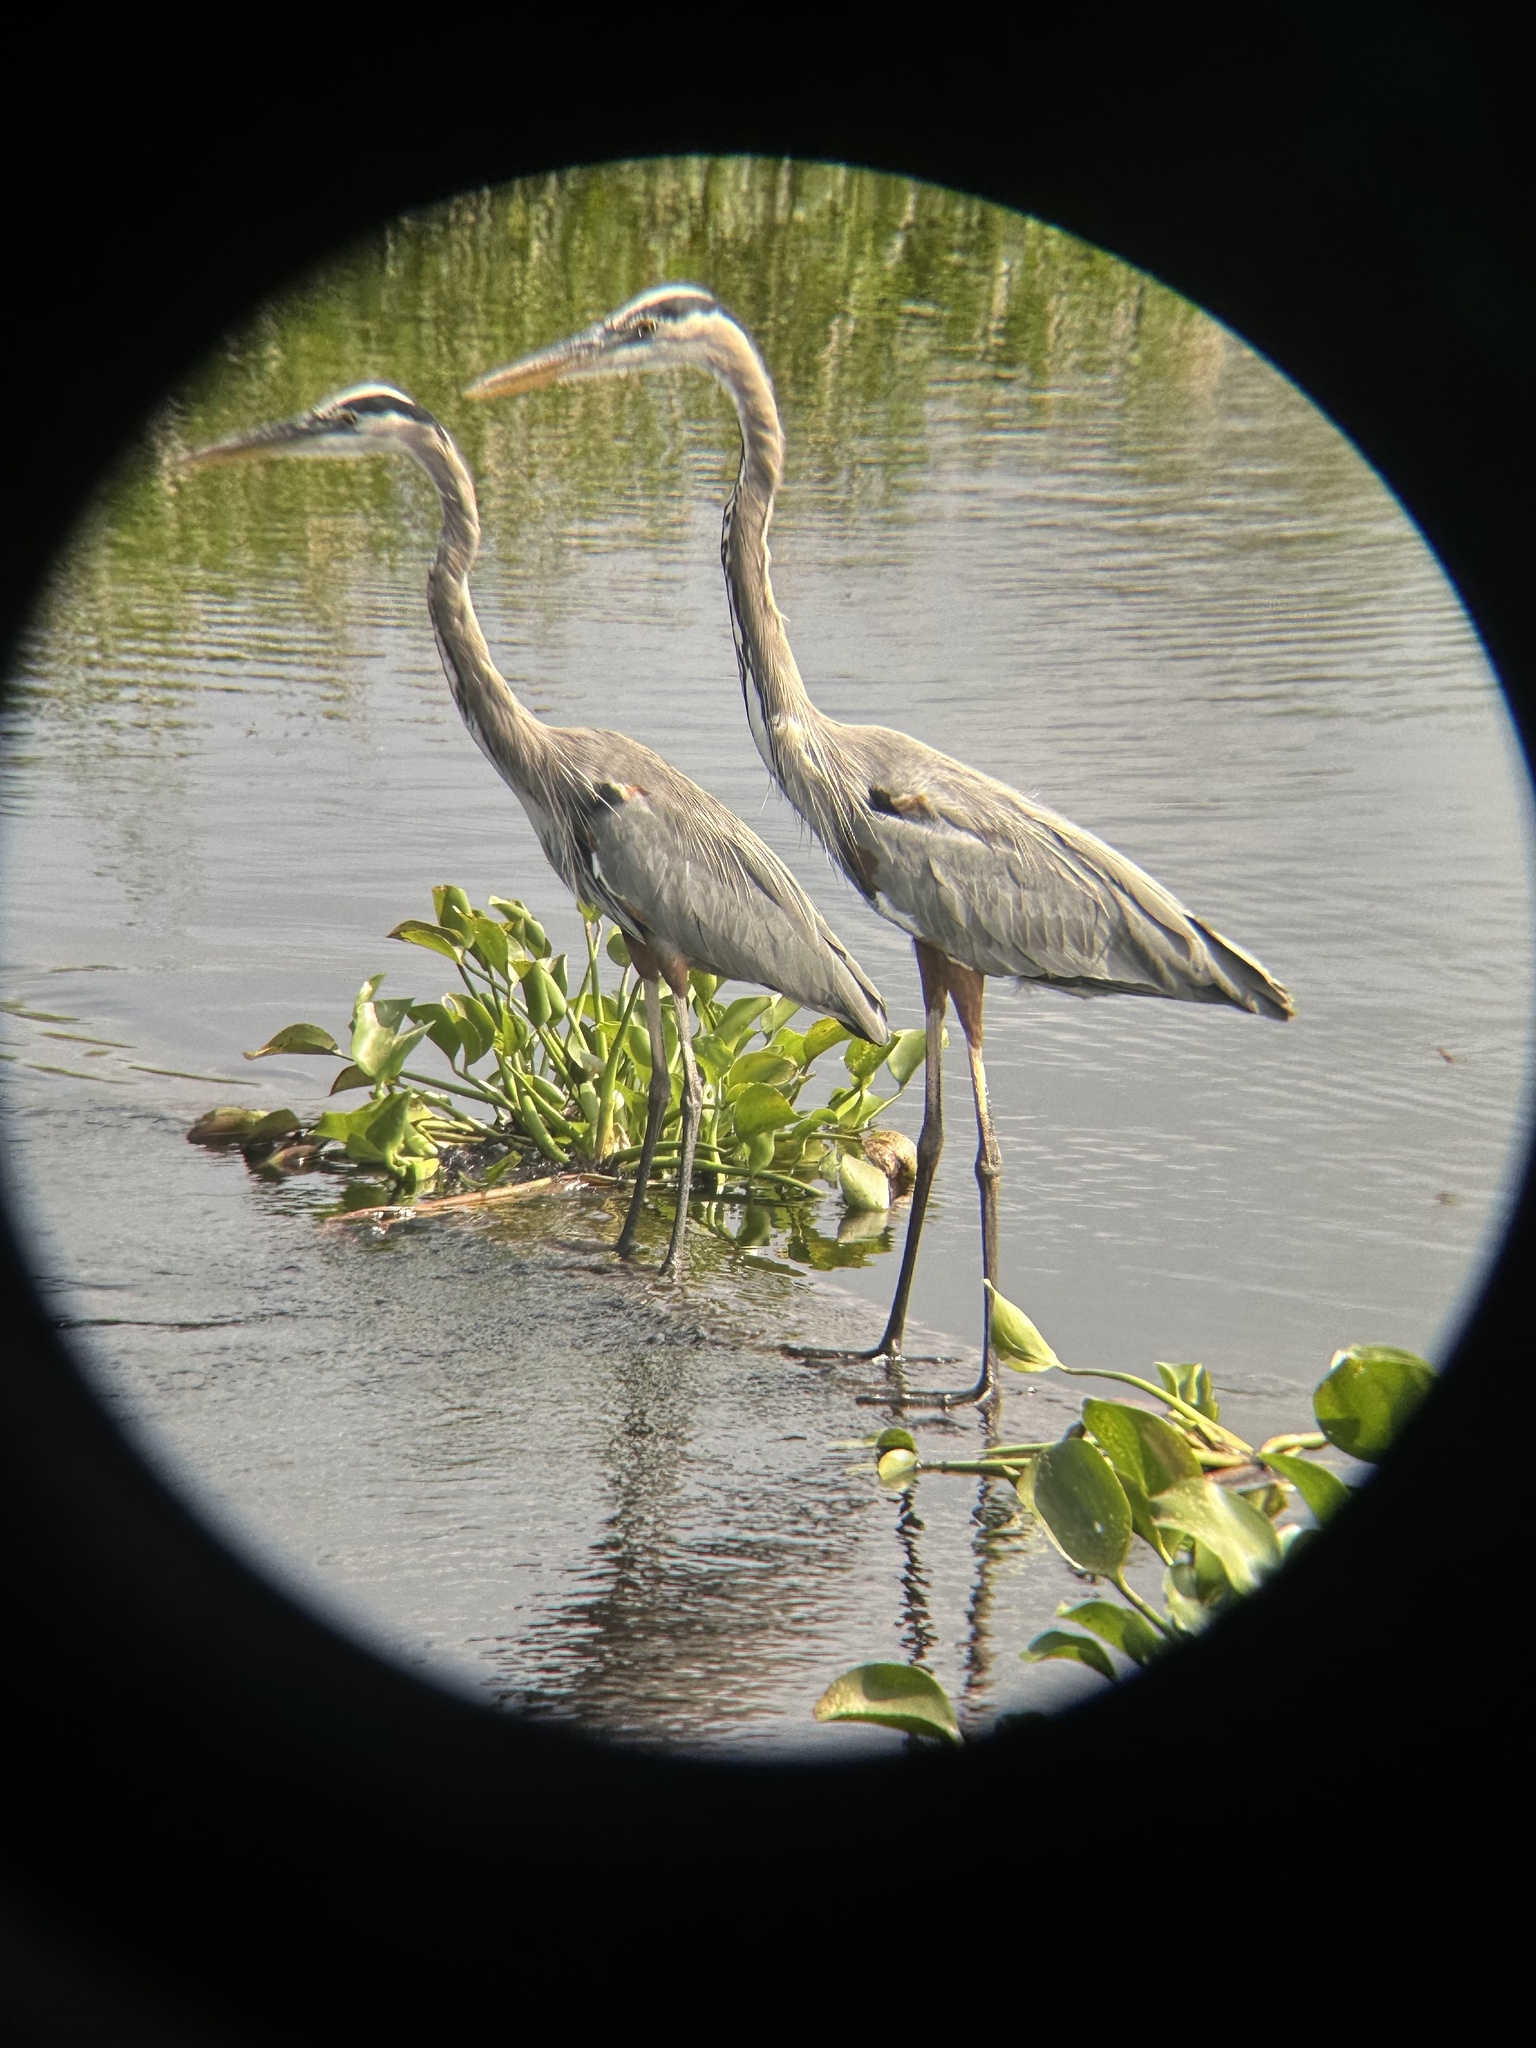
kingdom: Animalia
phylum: Chordata
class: Aves
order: Pelecaniformes
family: Ardeidae
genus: Ardea
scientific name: Ardea herodias
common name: Great blue heron
